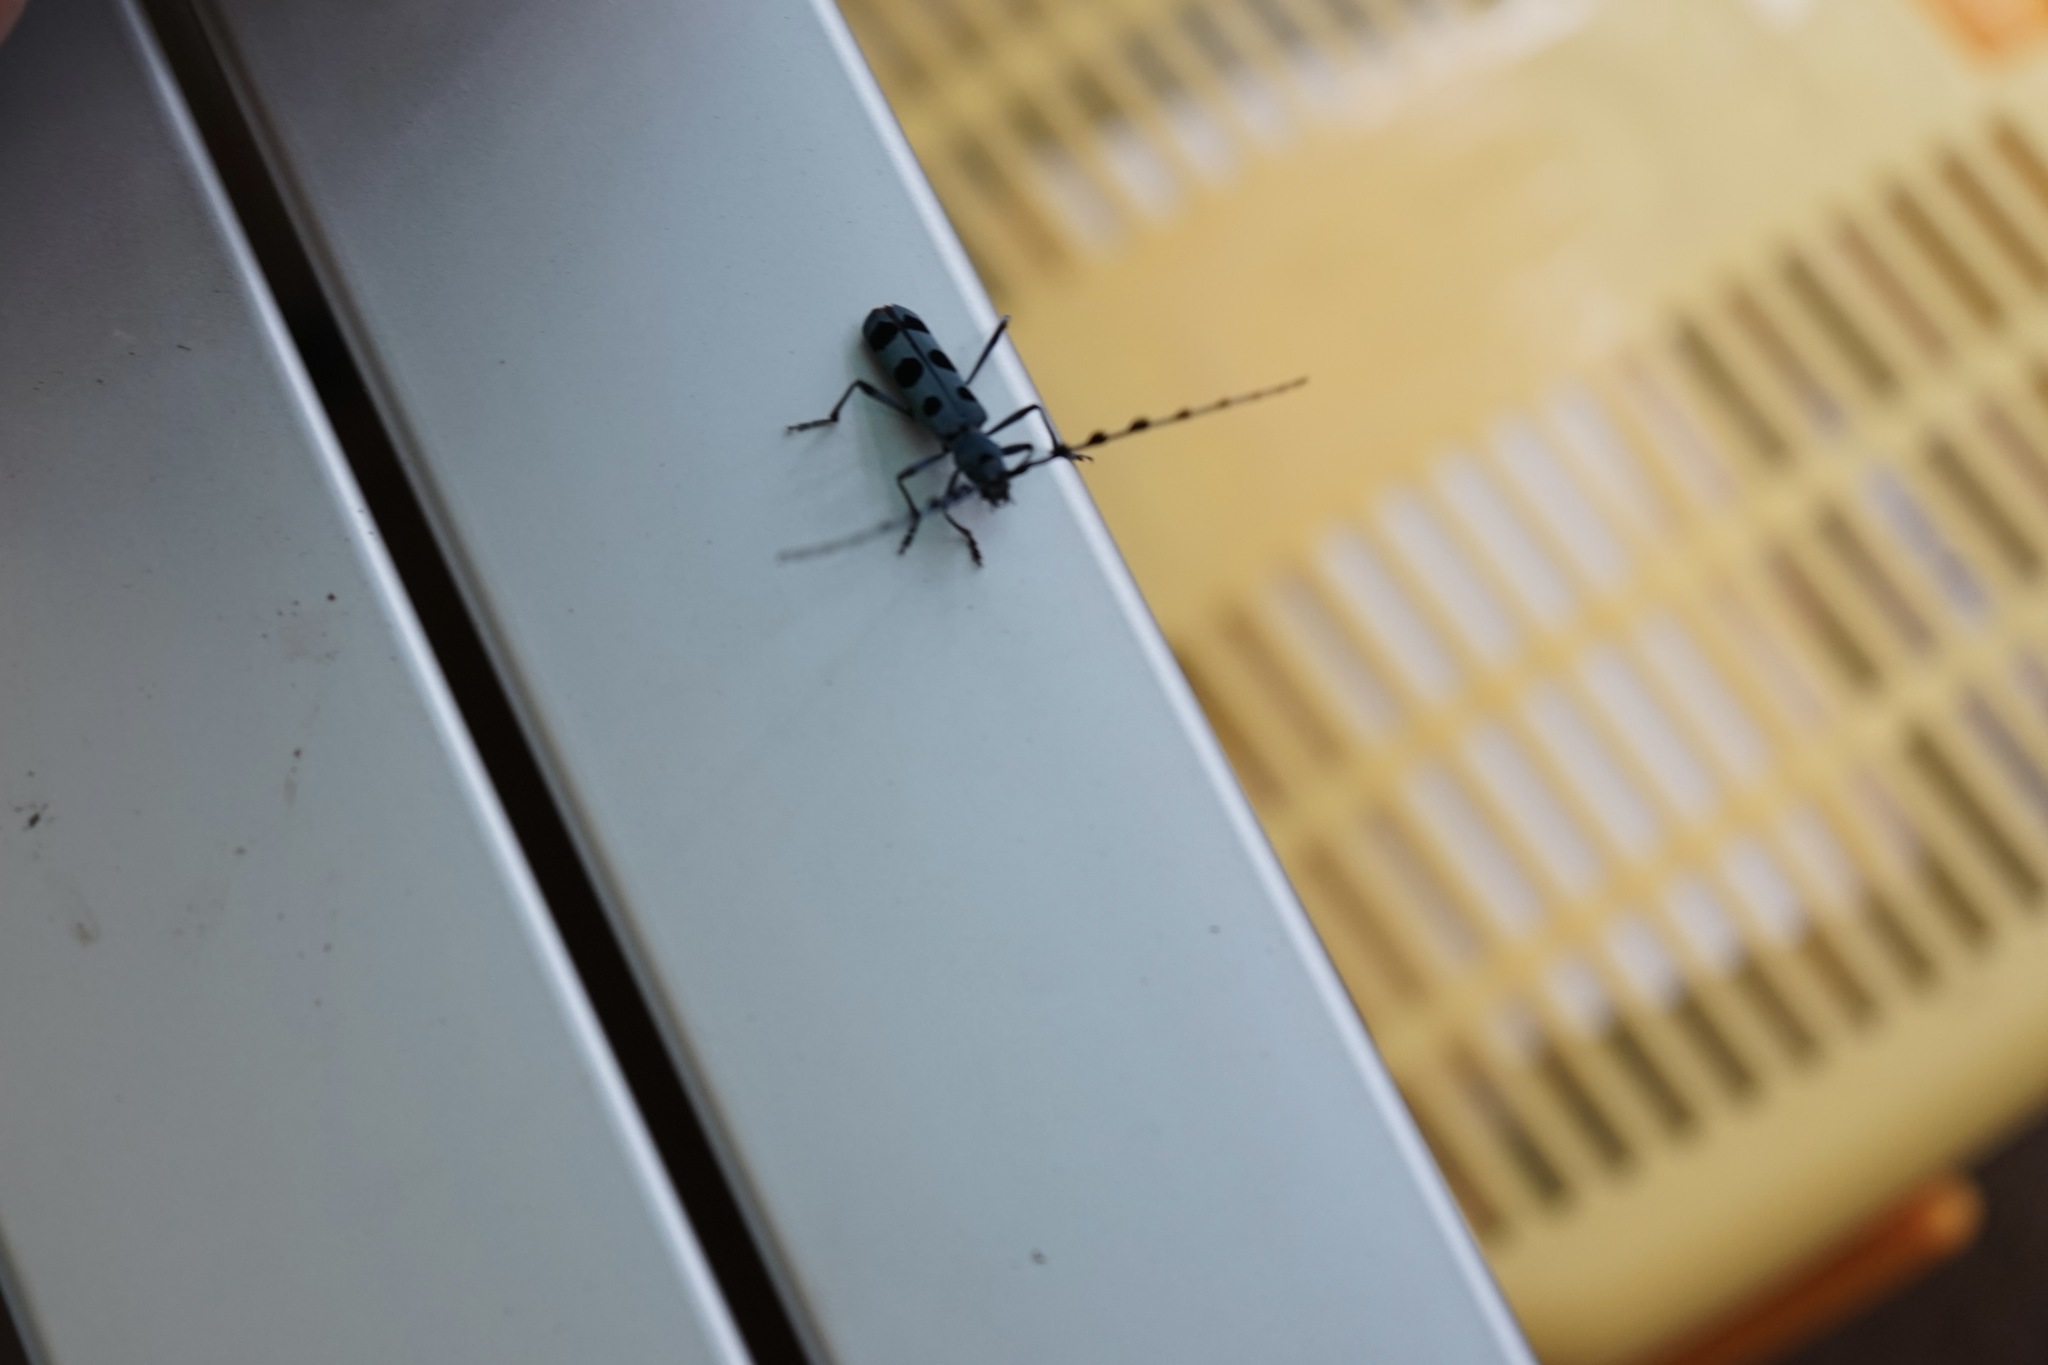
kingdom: Animalia
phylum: Arthropoda
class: Insecta
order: Coleoptera
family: Cerambycidae
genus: Rosalia
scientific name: Rosalia batesi
